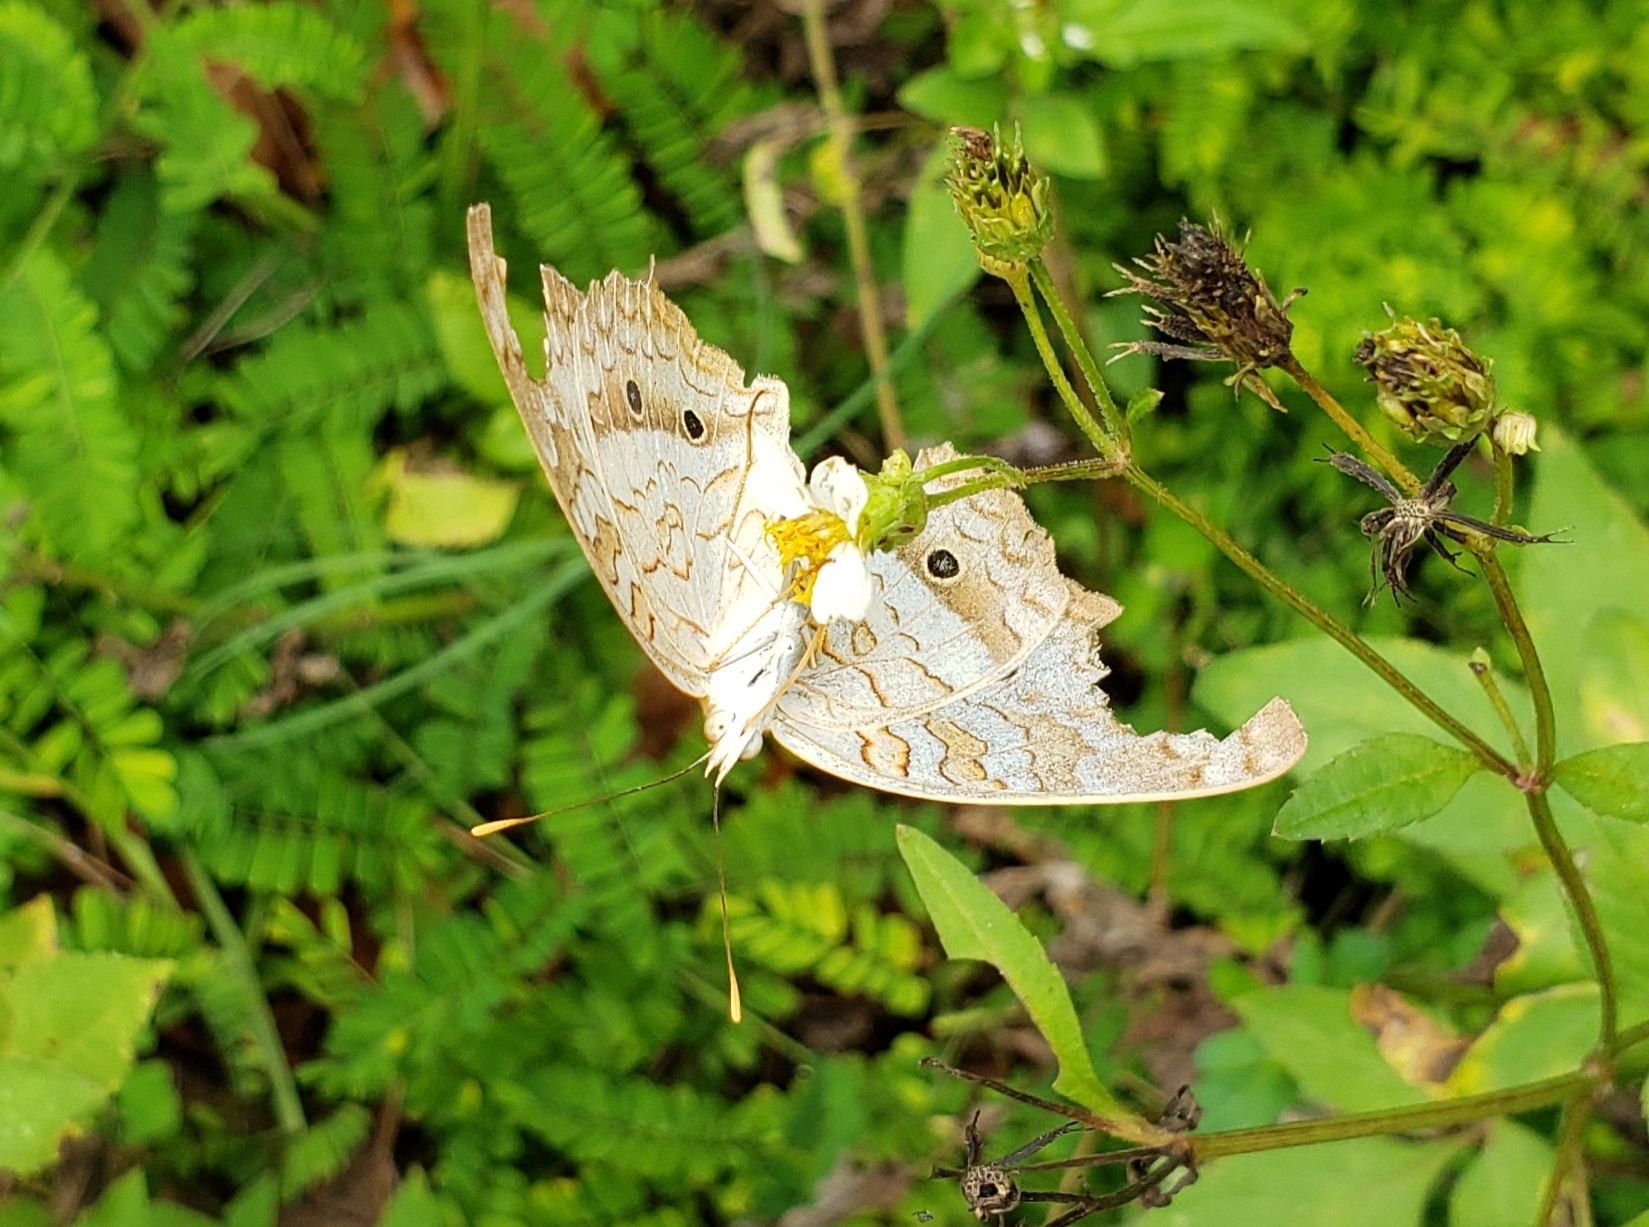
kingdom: Animalia
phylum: Arthropoda
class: Insecta
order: Lepidoptera
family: Nymphalidae
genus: Anartia
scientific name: Anartia jatrophae
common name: White peacock
